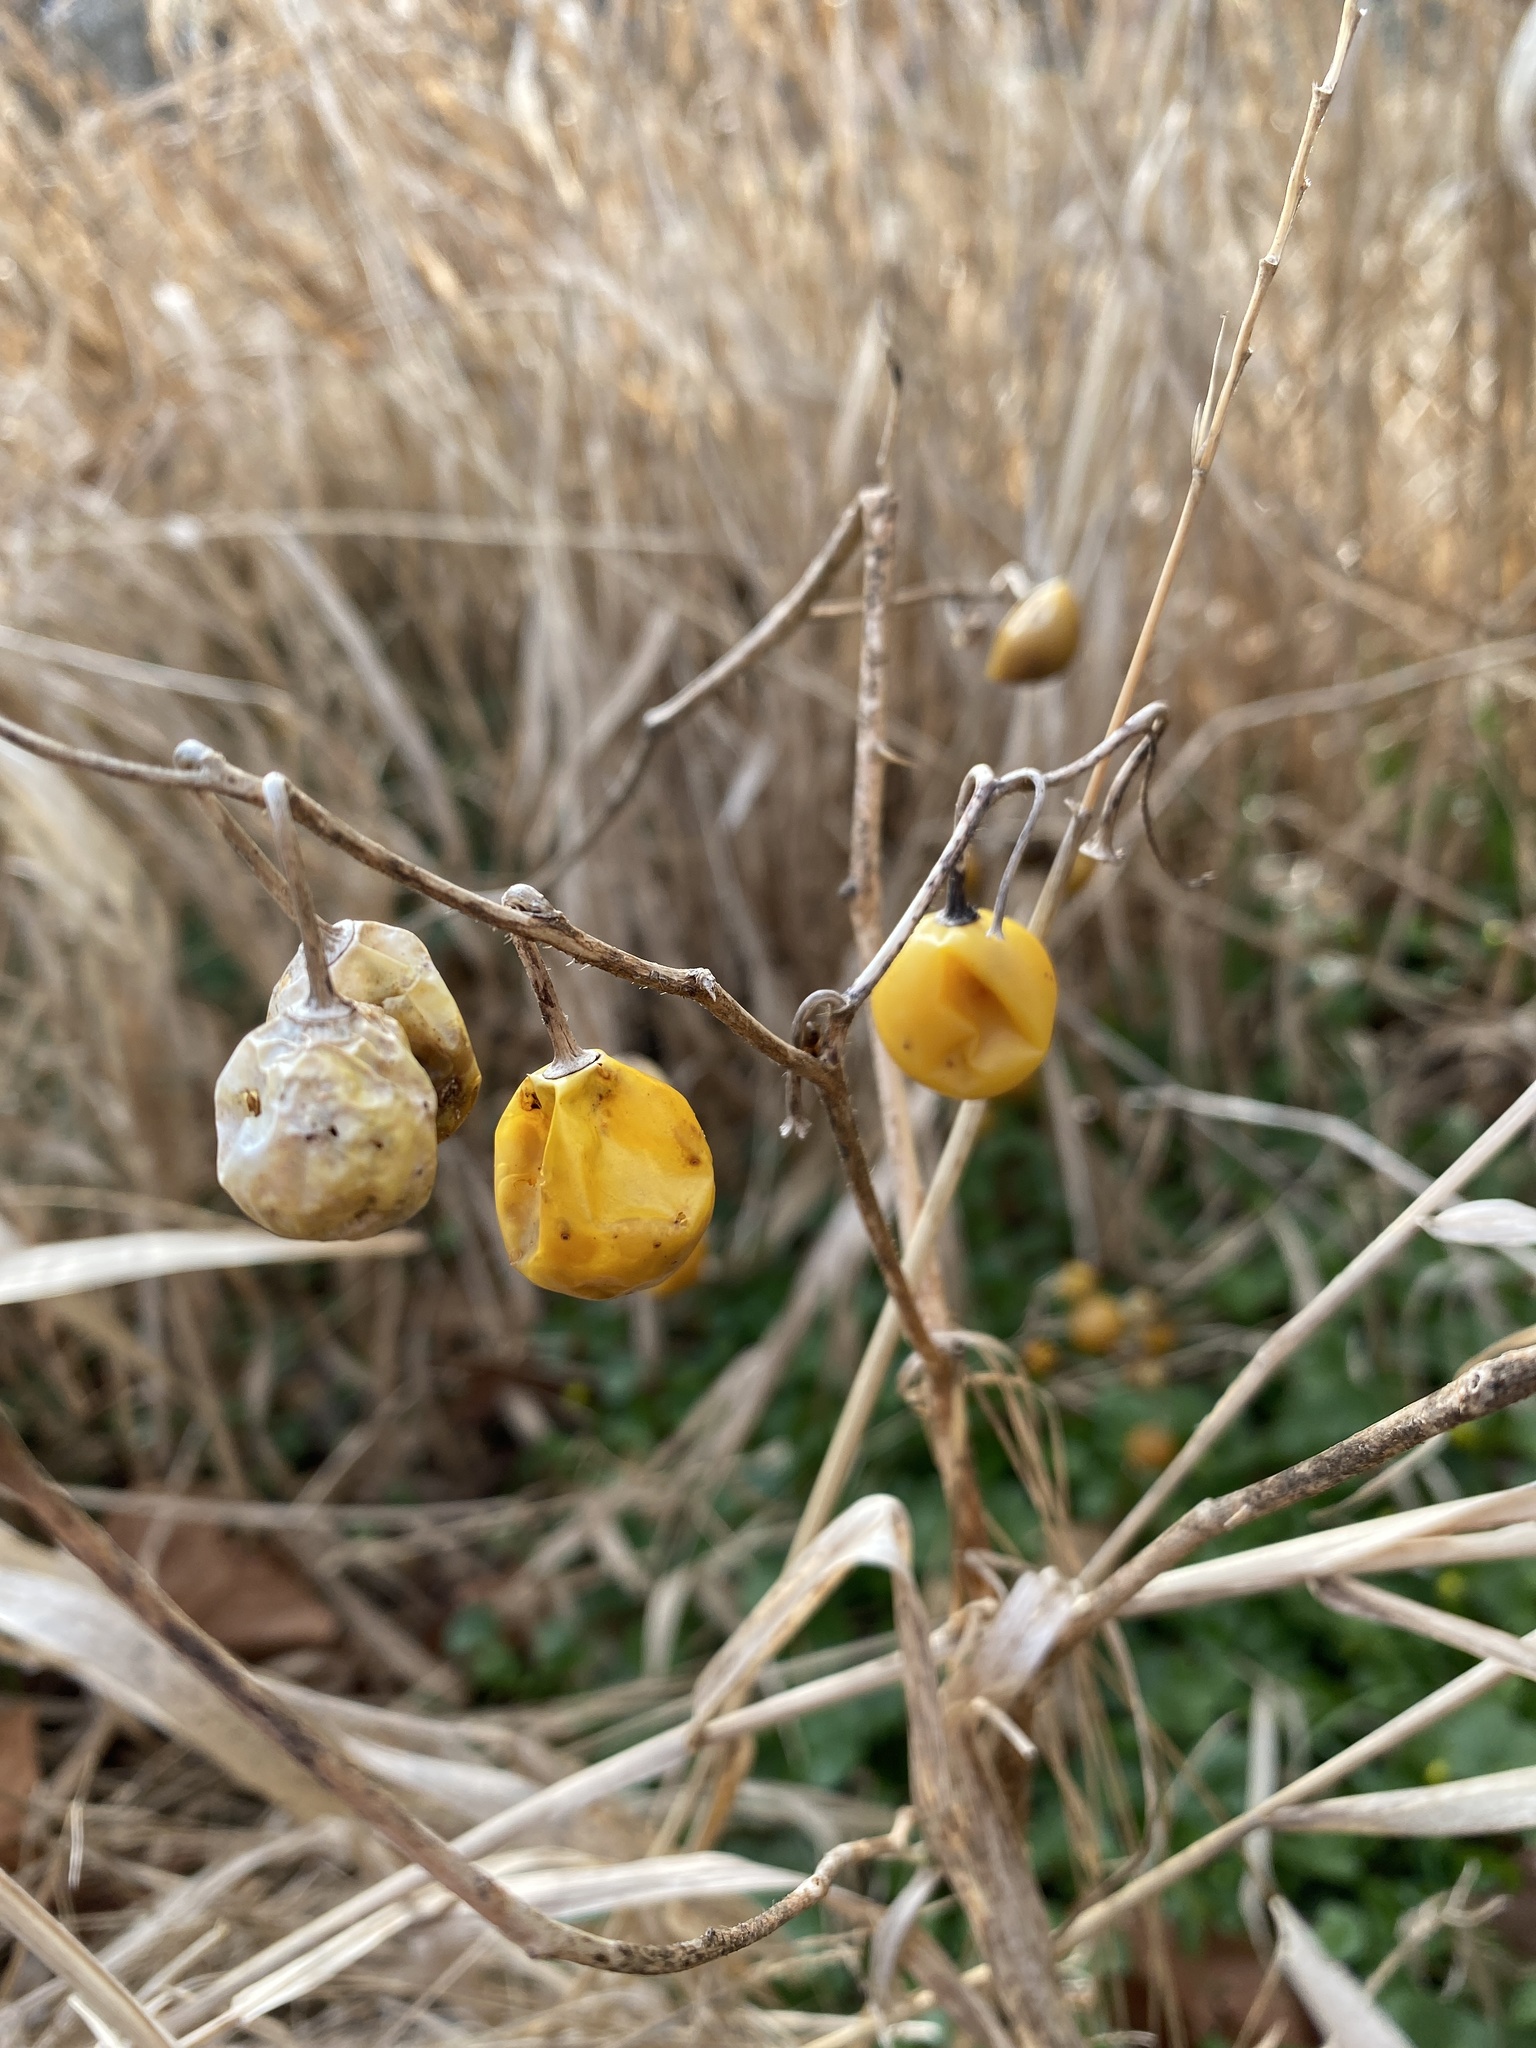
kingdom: Plantae
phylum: Tracheophyta
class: Magnoliopsida
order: Solanales
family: Solanaceae
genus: Solanum
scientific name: Solanum carolinense
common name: Horse-nettle
